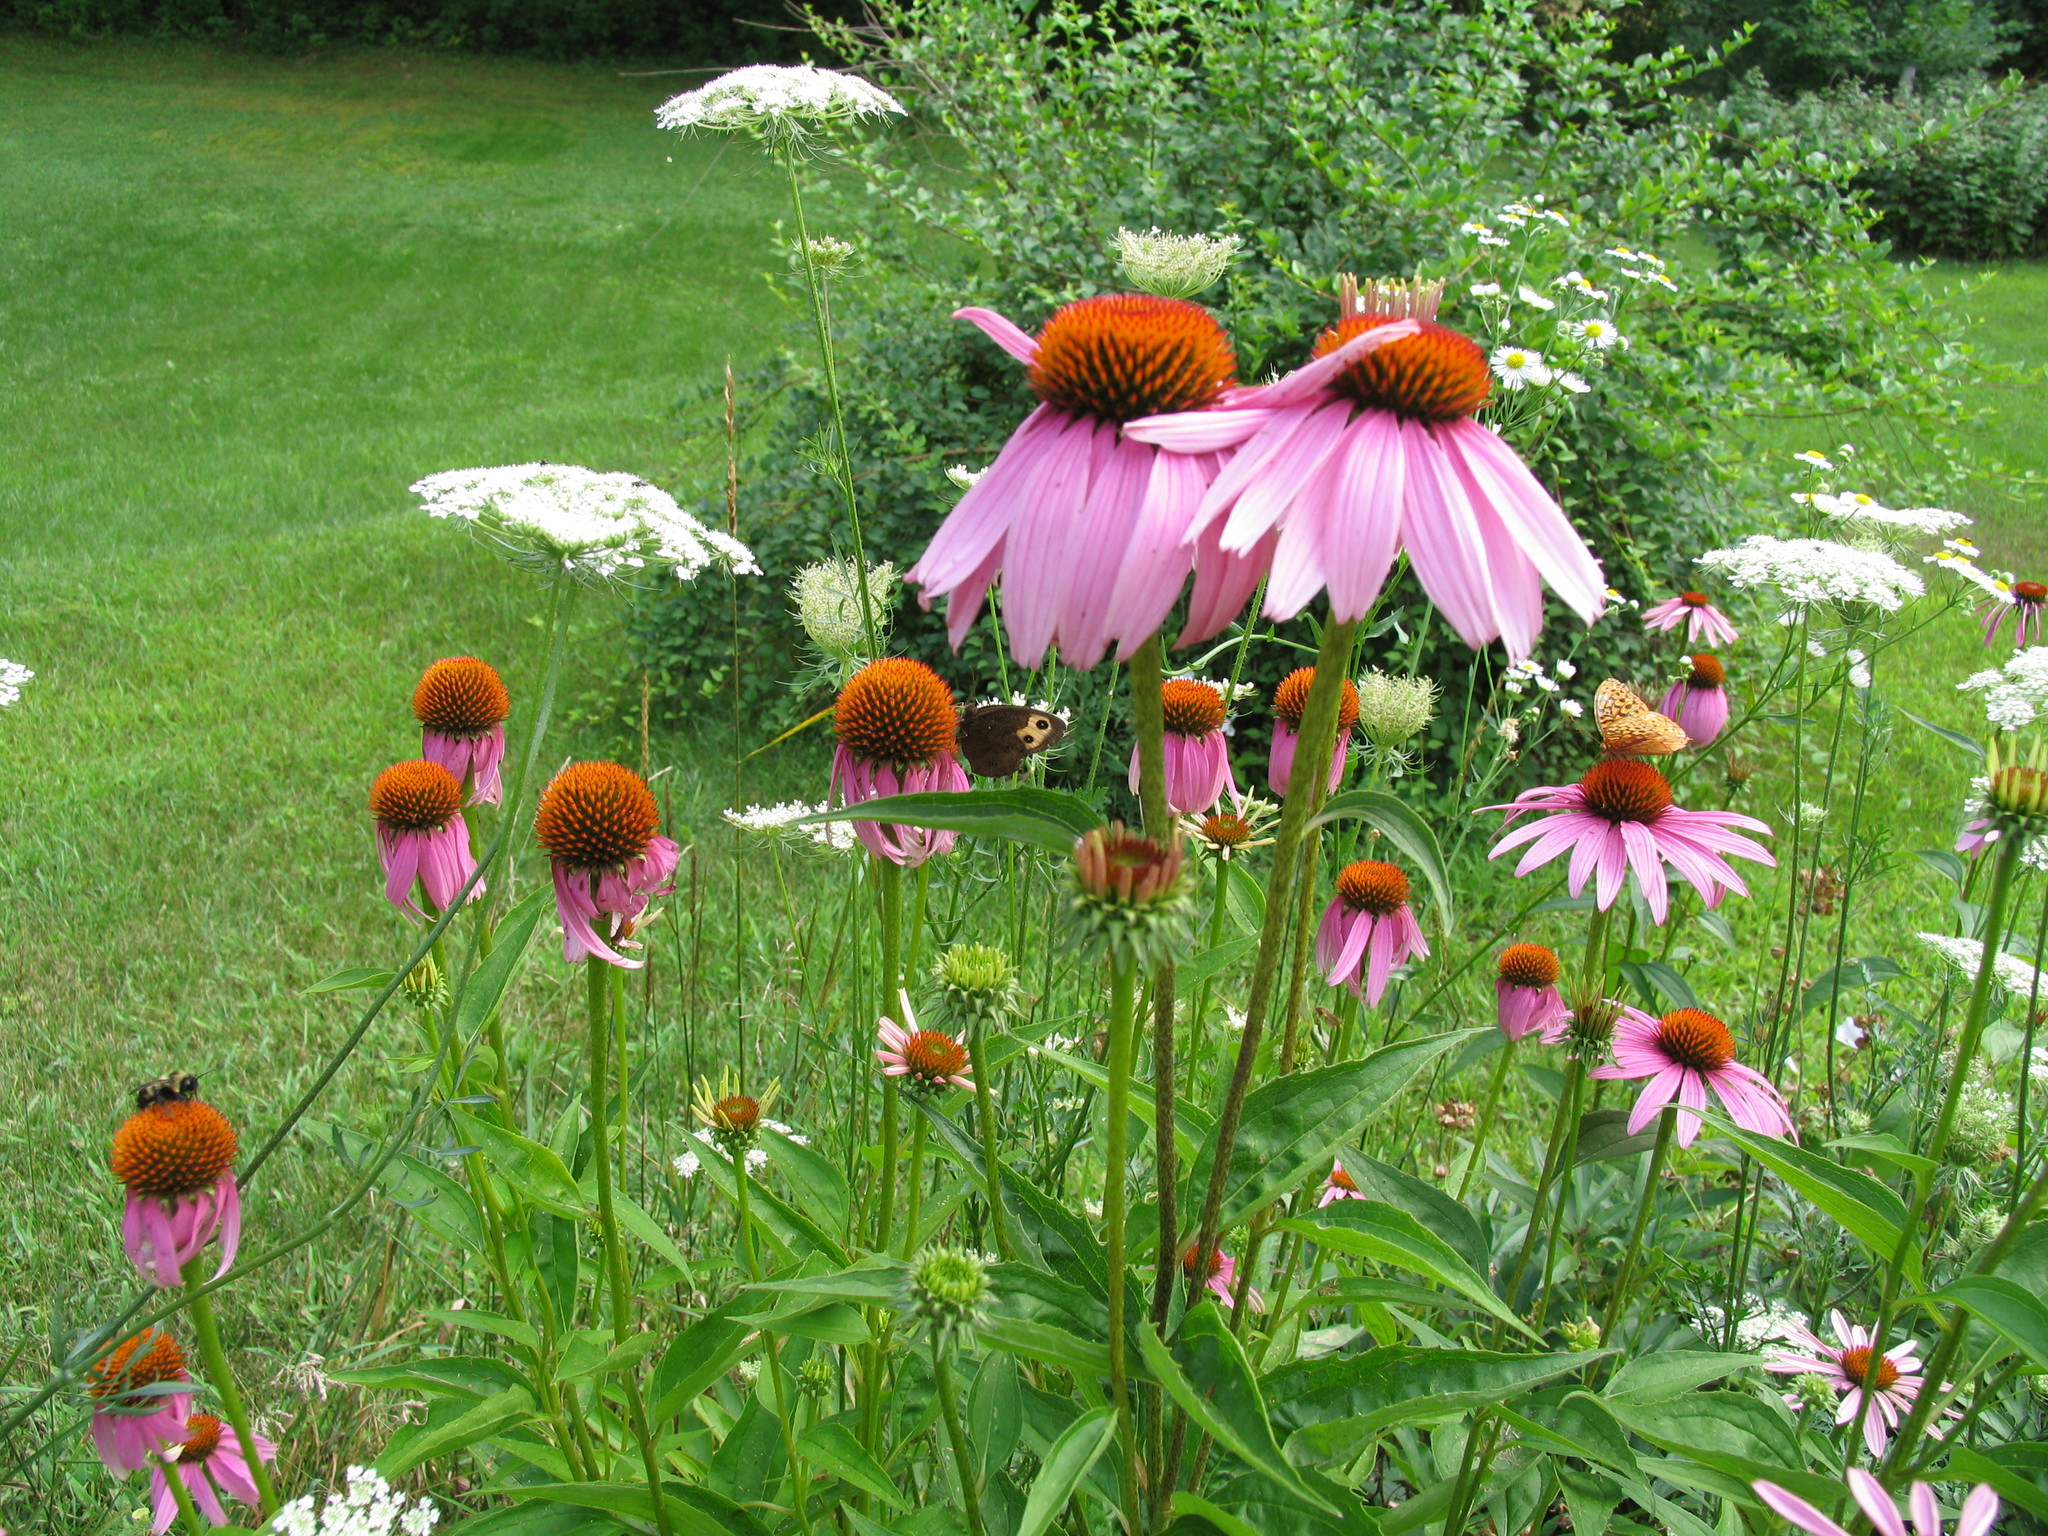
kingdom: Animalia
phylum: Arthropoda
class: Insecta
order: Lepidoptera
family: Nymphalidae
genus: Cercyonis
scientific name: Cercyonis pegala
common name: Common wood-nymph
